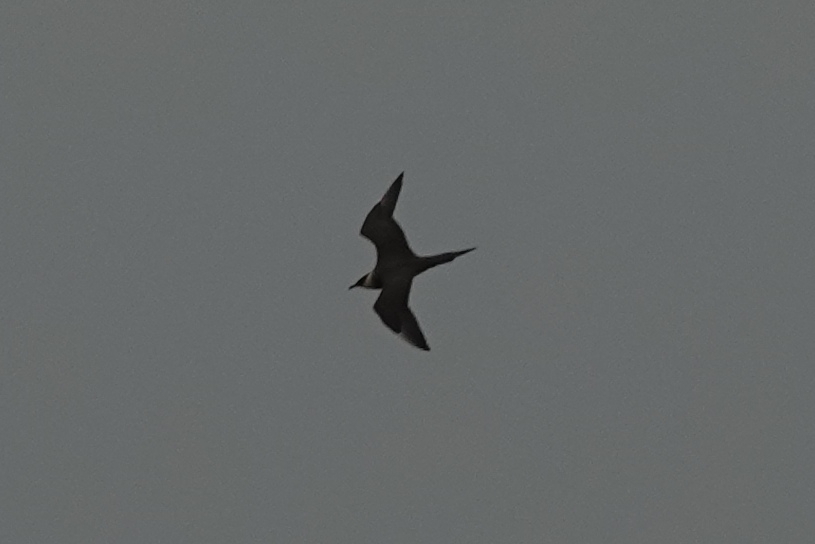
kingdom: Animalia
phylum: Chordata
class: Aves
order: Charadriiformes
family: Stercorariidae
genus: Stercorarius
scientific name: Stercorarius parasiticus
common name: Parasitic jaeger
